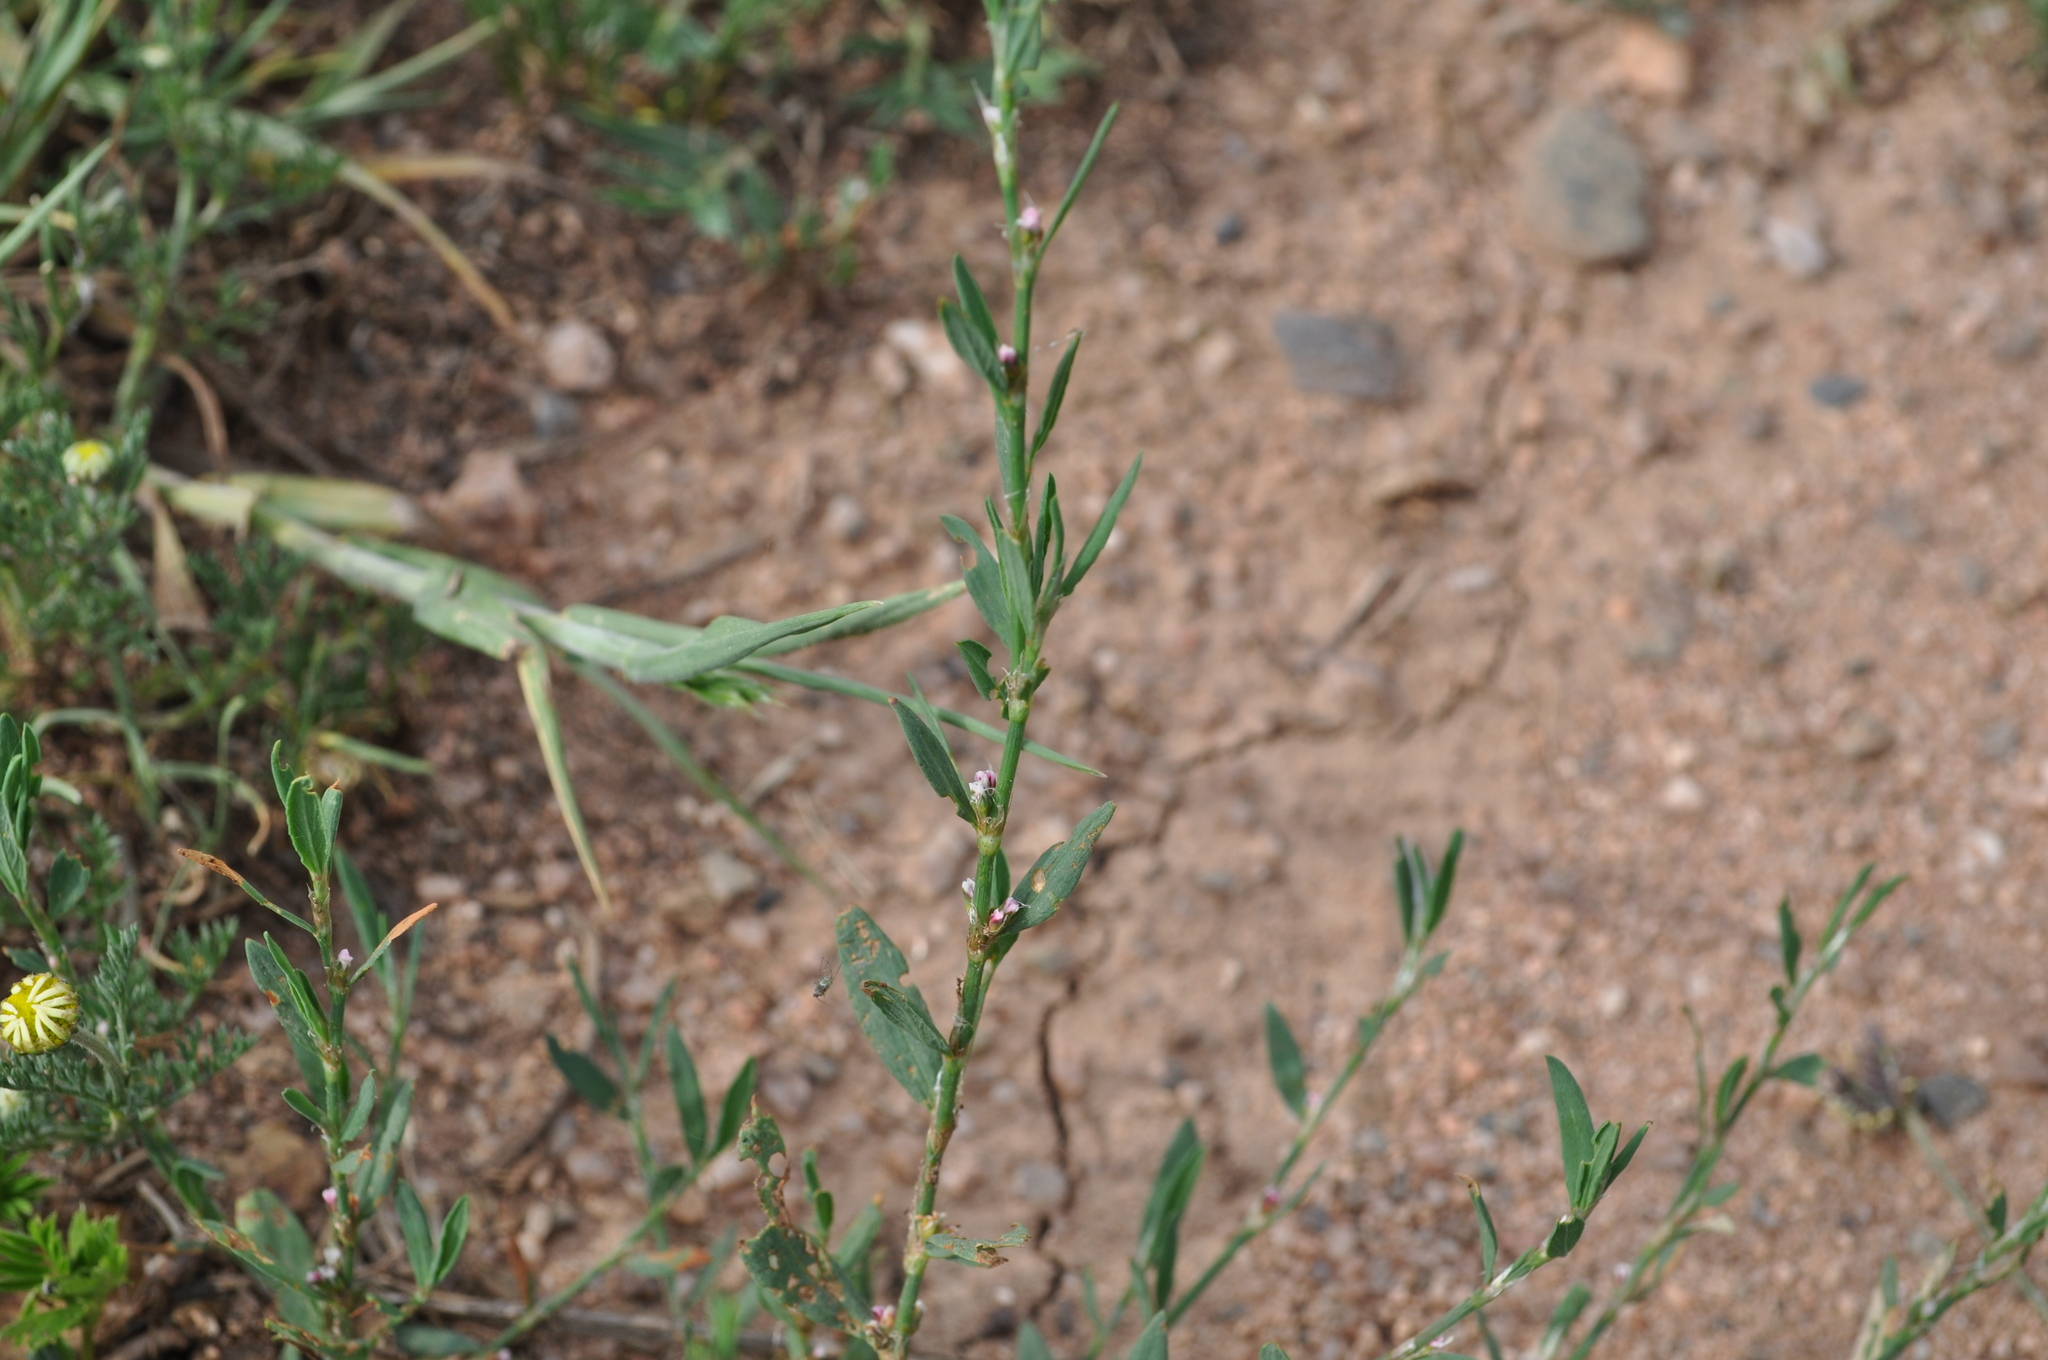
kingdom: Plantae
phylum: Tracheophyta
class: Magnoliopsida
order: Caryophyllales
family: Polygonaceae
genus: Polygonum
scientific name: Polygonum aviculare
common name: Prostrate knotweed
